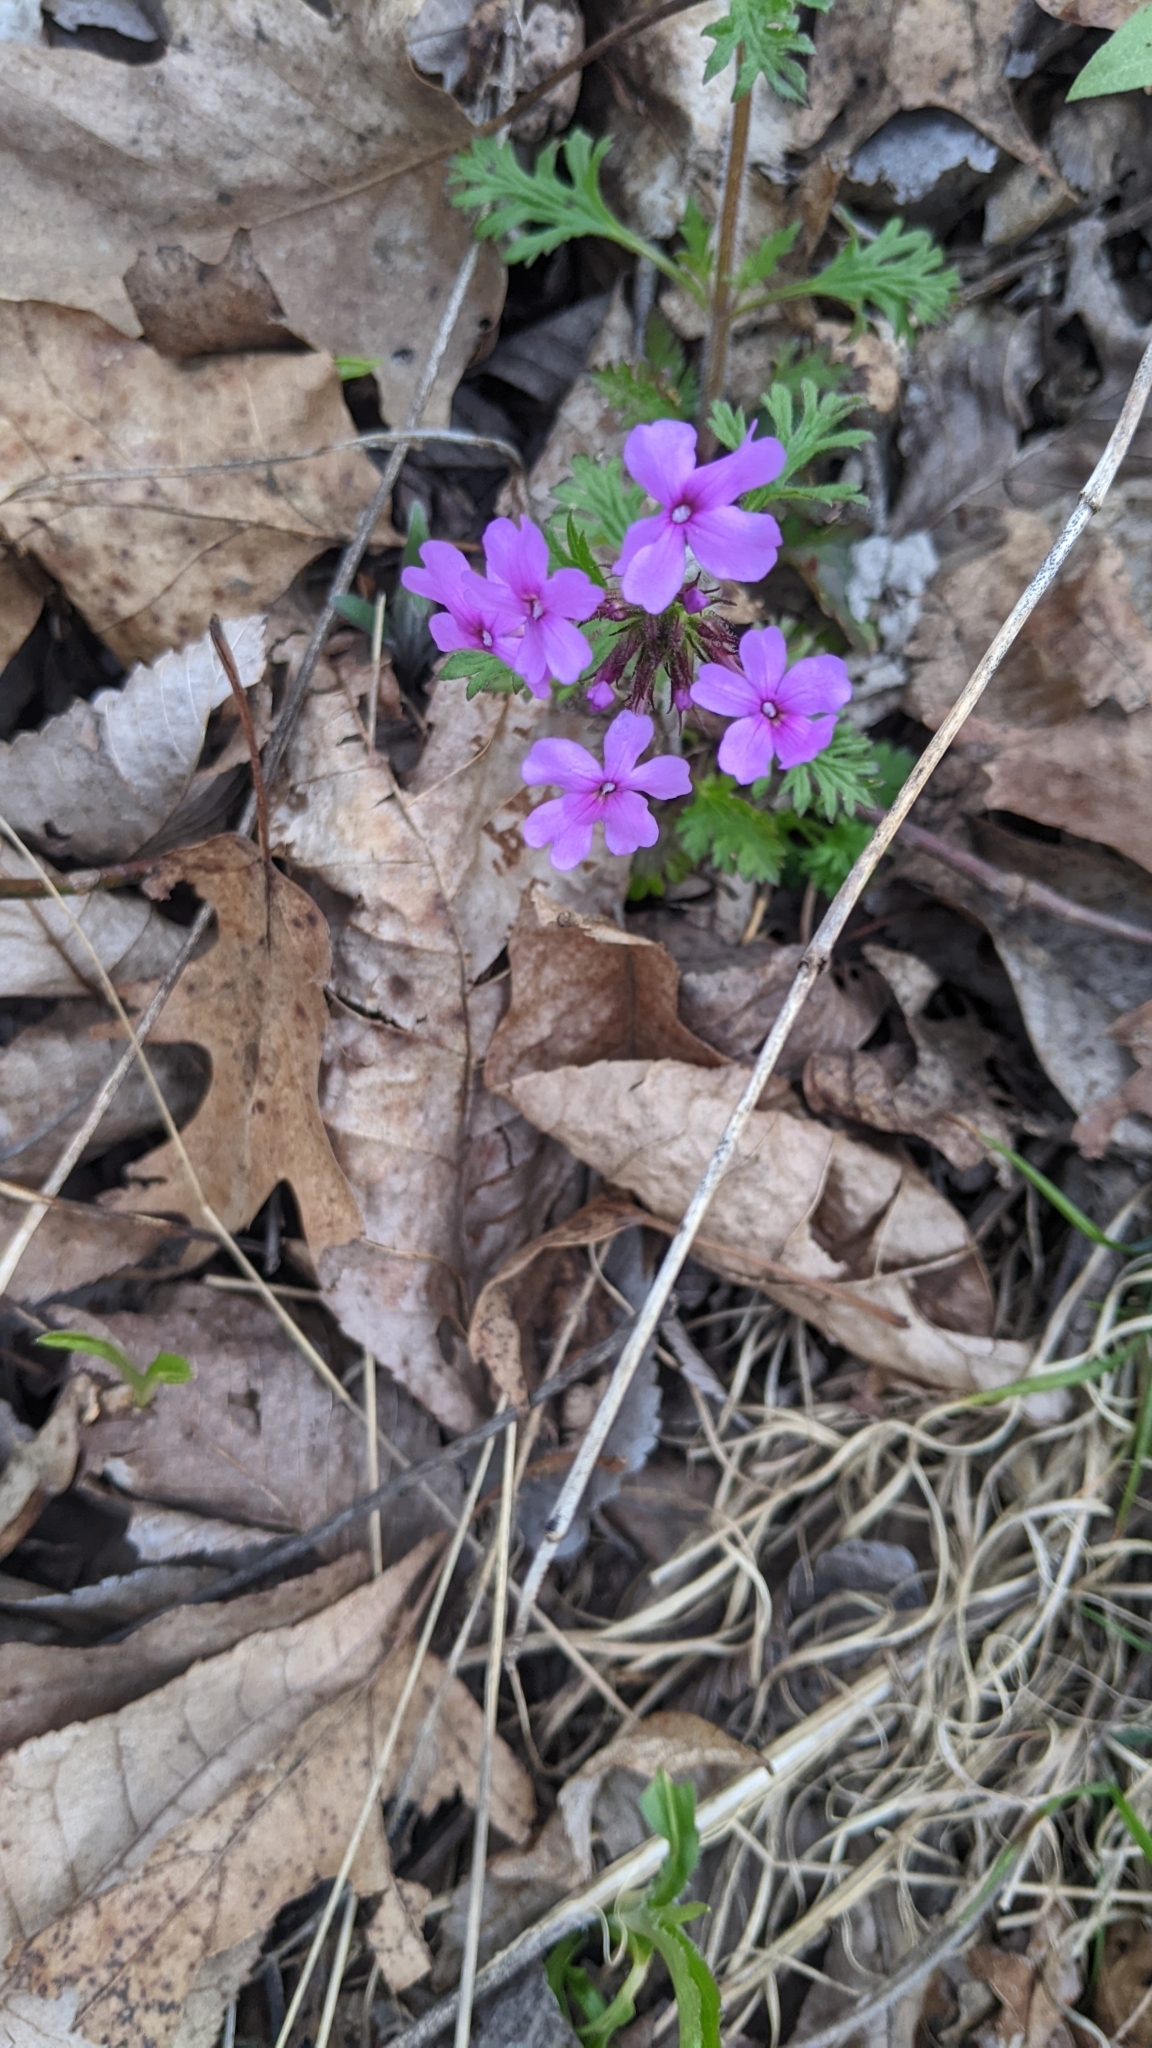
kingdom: Plantae
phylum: Tracheophyta
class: Magnoliopsida
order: Lamiales
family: Verbenaceae
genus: Verbena
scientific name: Verbena canadensis
